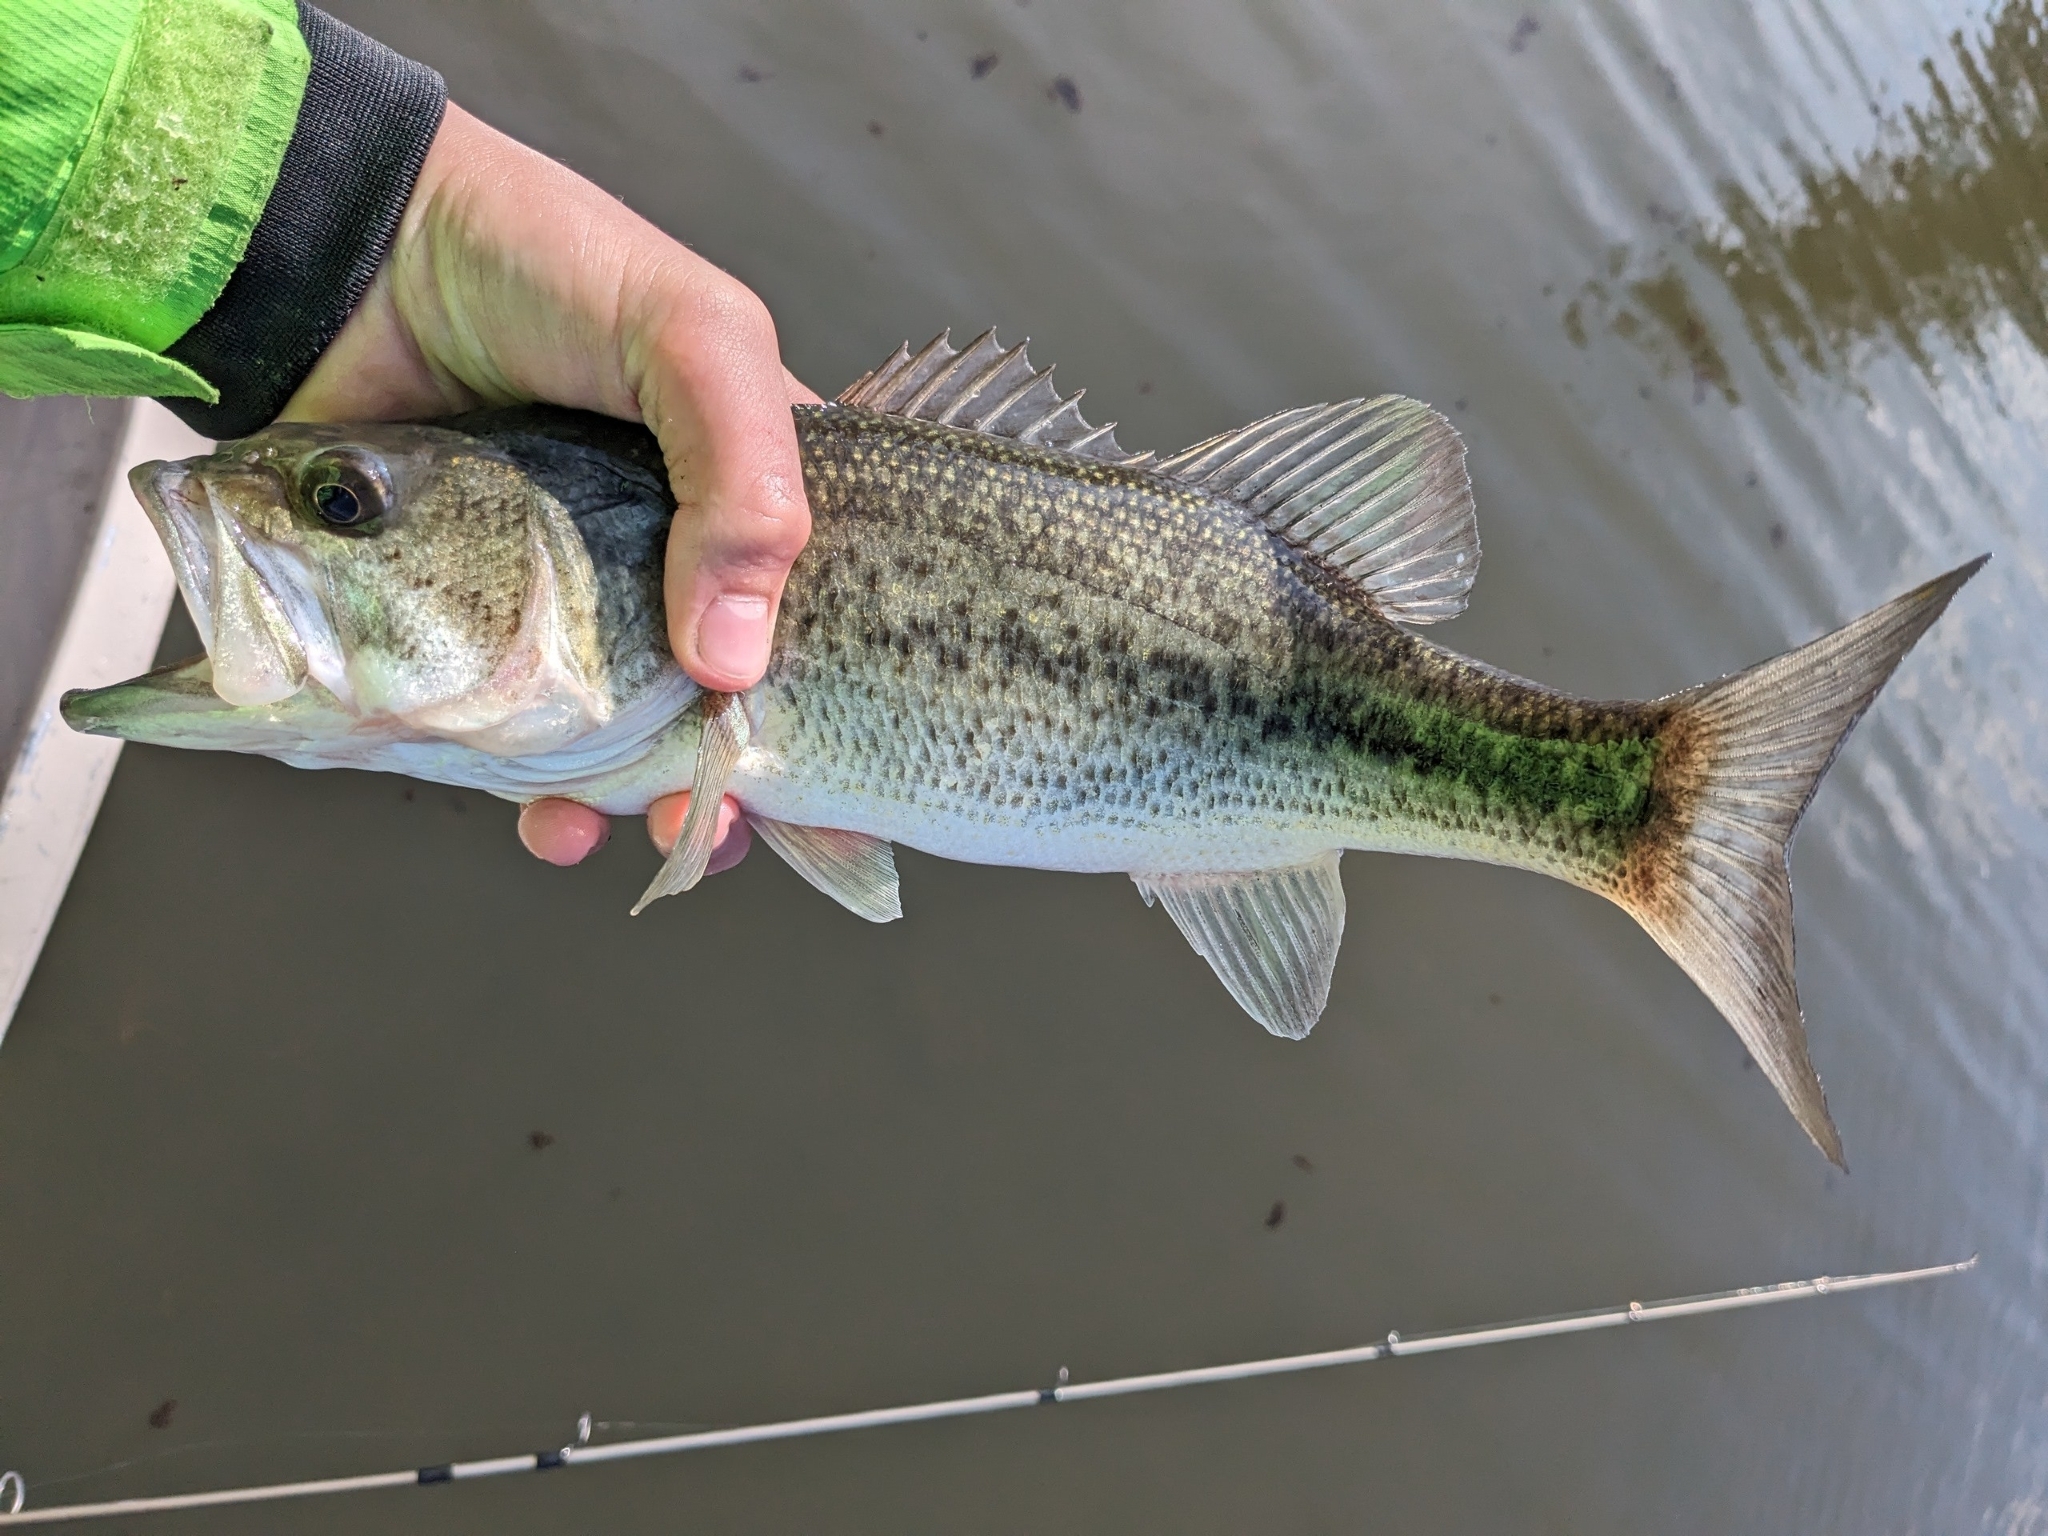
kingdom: Animalia
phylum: Chordata
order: Perciformes
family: Centrarchidae
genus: Micropterus
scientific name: Micropterus
